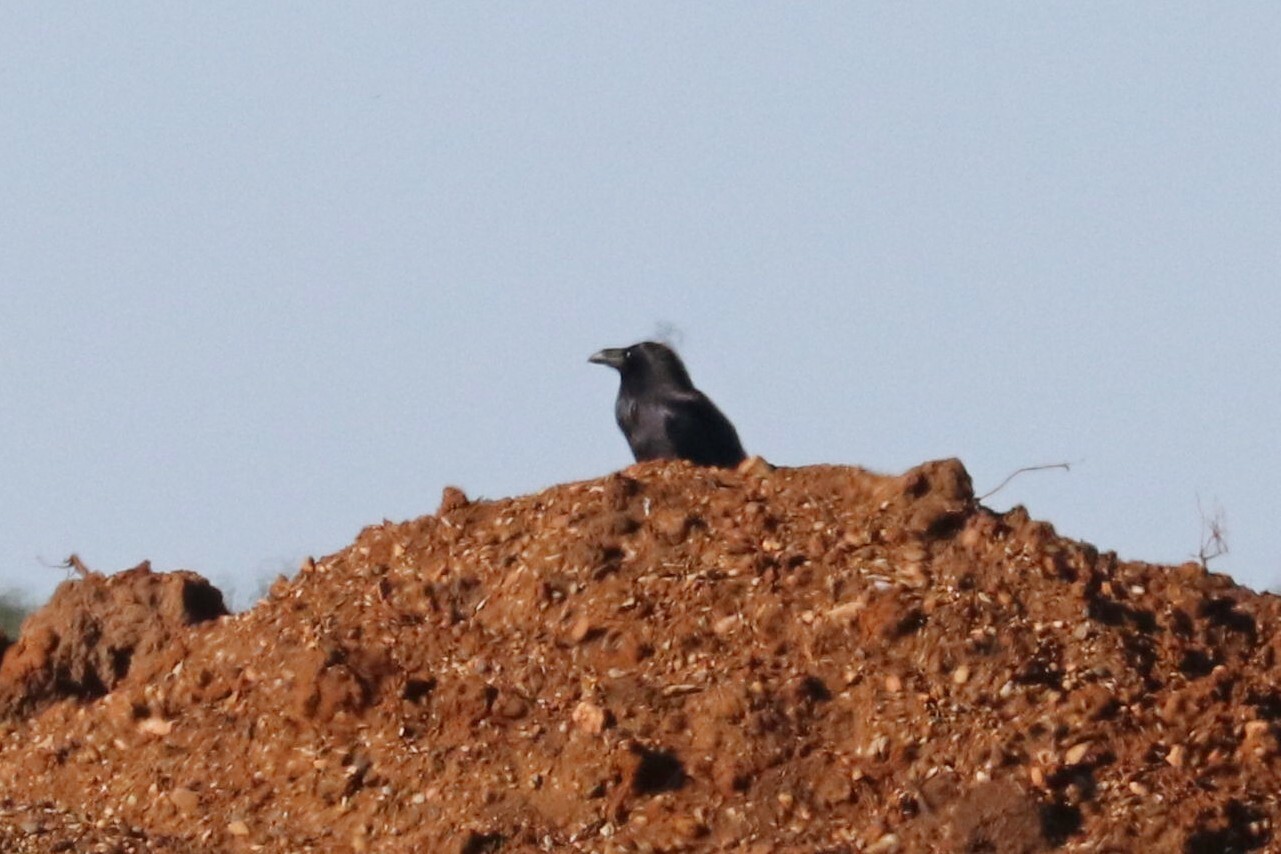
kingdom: Animalia
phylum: Chordata
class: Aves
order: Passeriformes
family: Corvidae
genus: Corvus
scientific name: Corvus corax
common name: Common raven
